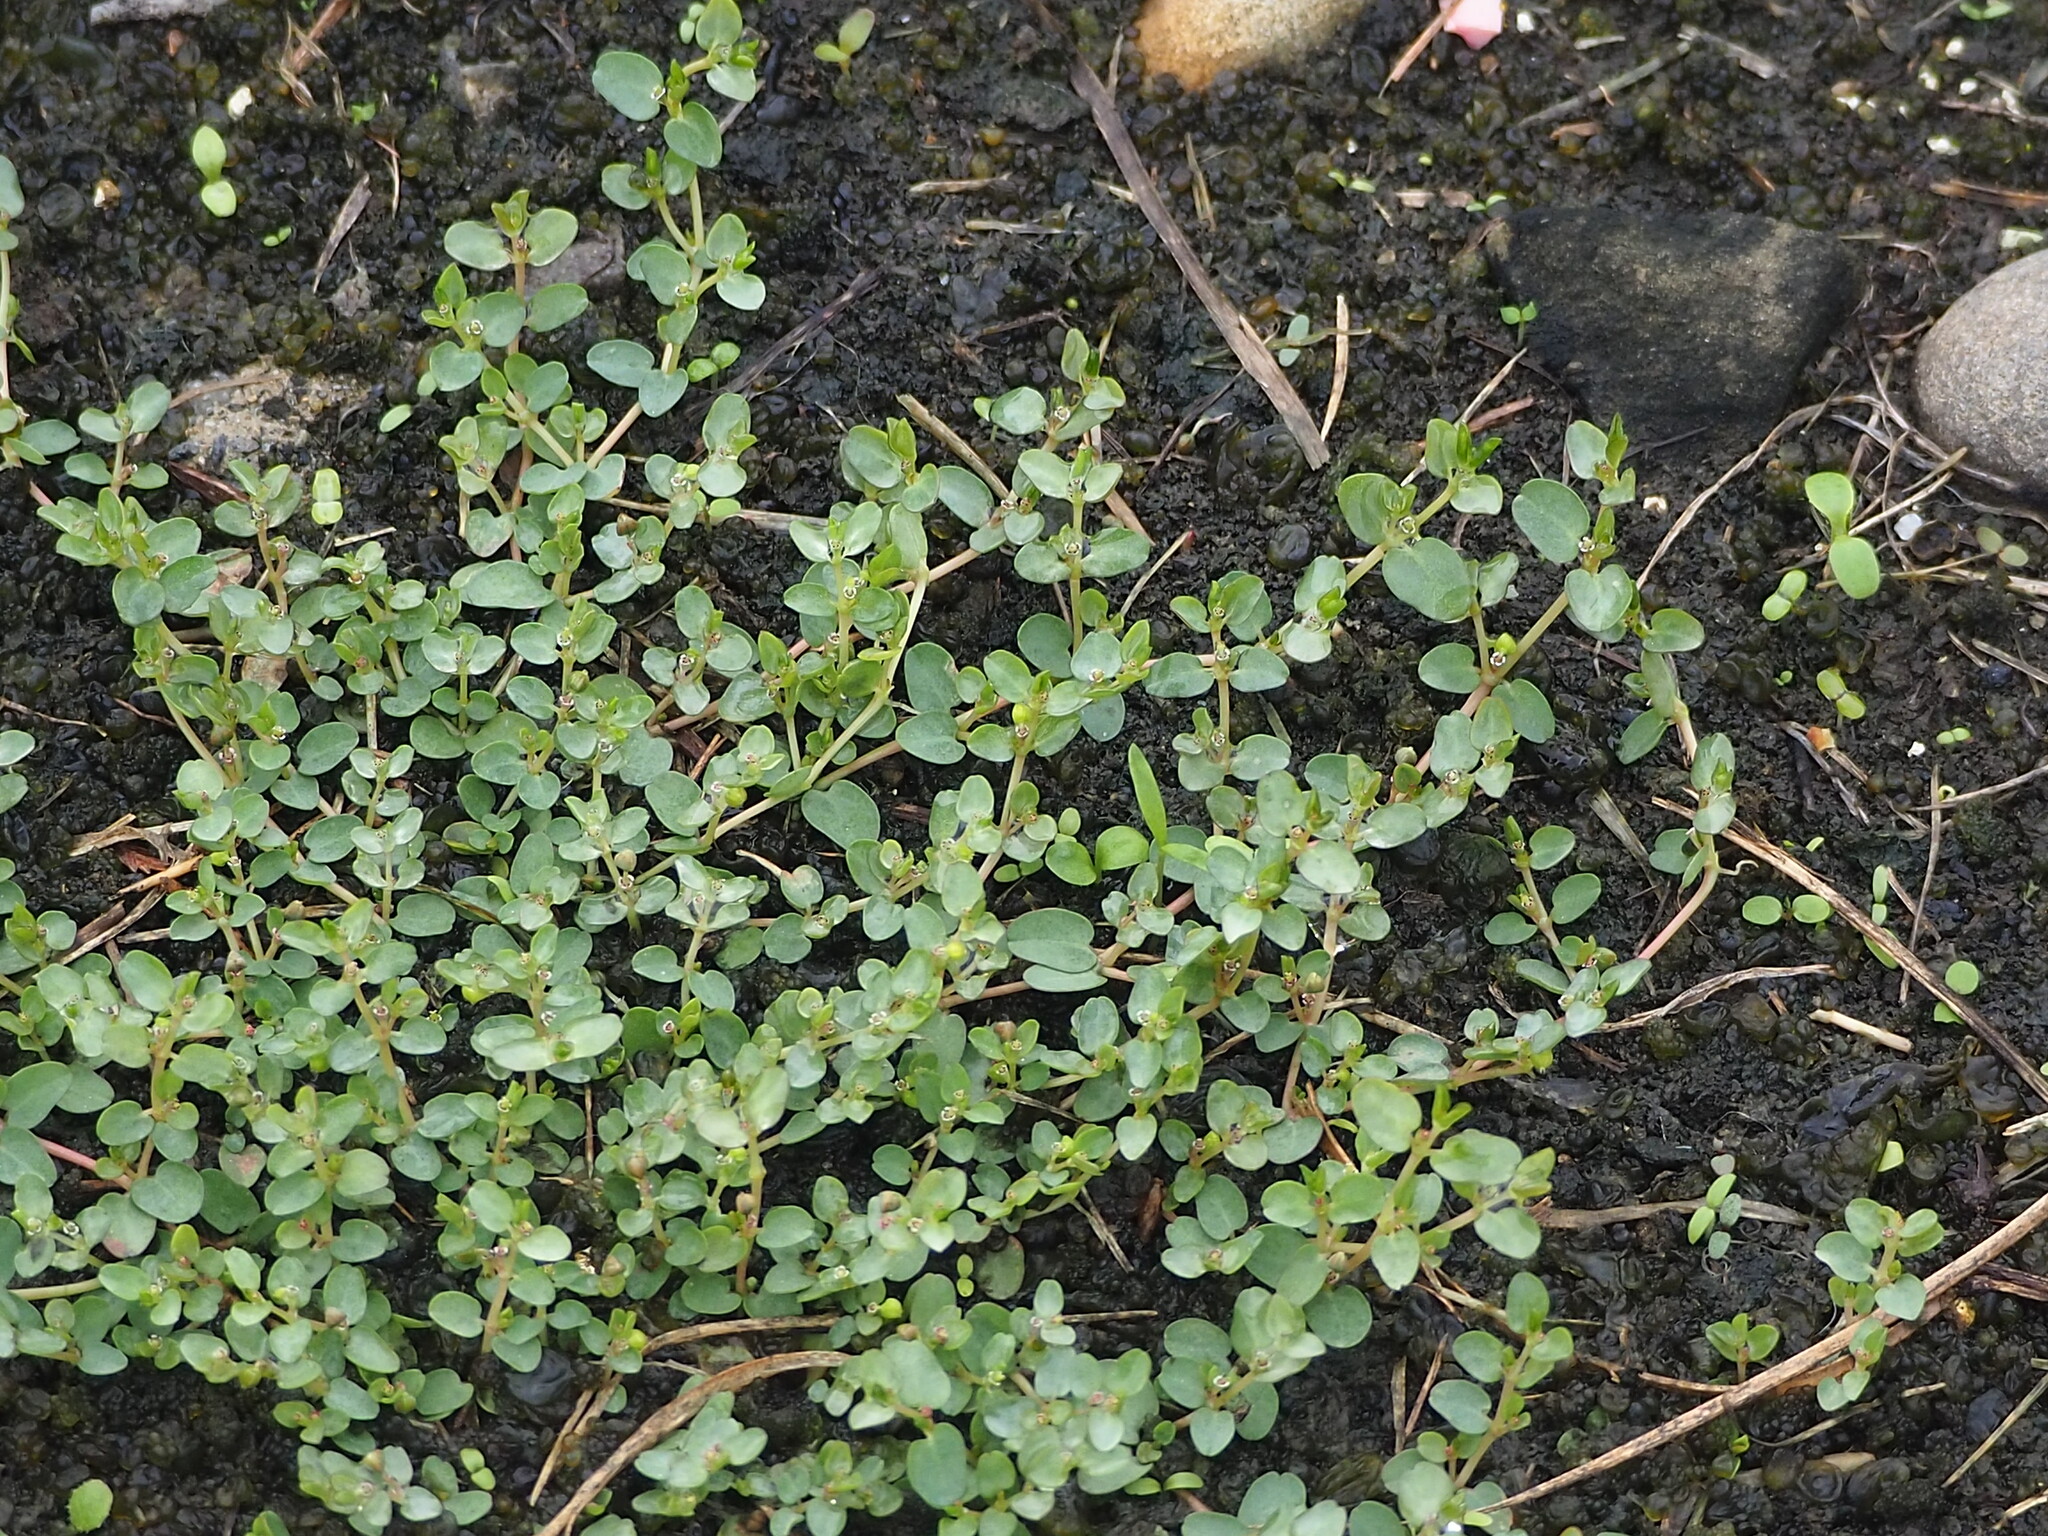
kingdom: Plantae
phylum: Tracheophyta
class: Magnoliopsida
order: Malpighiales
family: Euphorbiaceae
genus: Euphorbia
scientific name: Euphorbia serpens
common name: Matted sandmat
